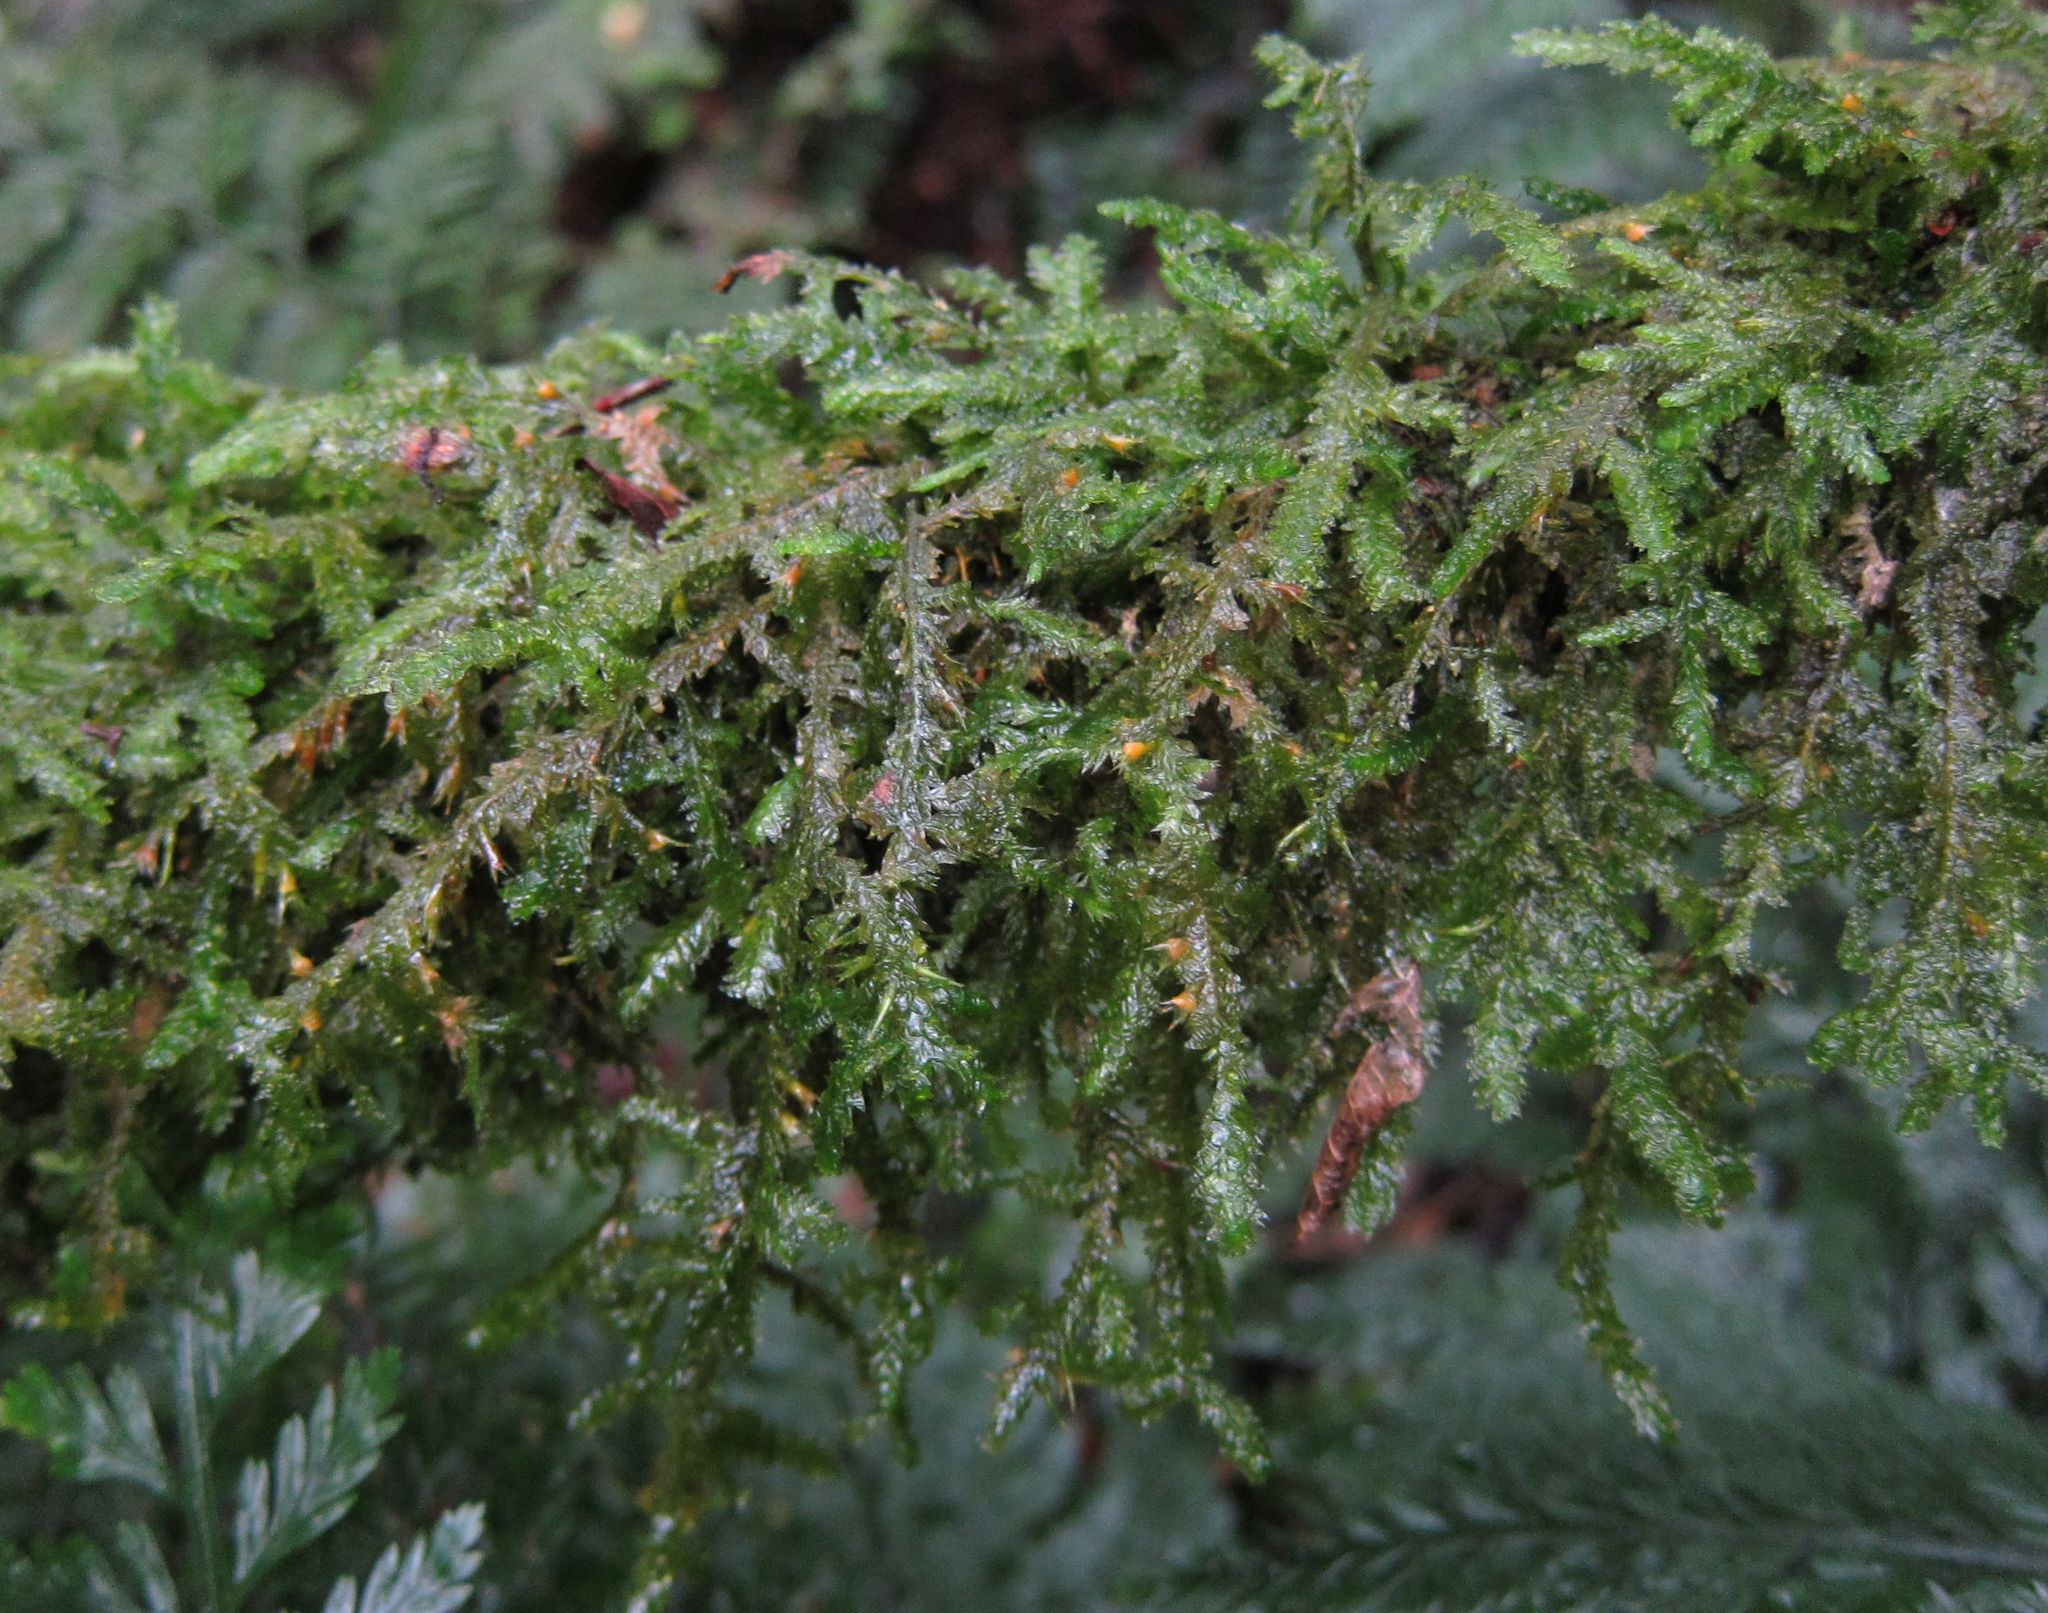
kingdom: Plantae
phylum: Bryophyta
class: Bryopsida
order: Hypnales
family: Neckeraceae
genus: Alleniella
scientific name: Alleniella hymenodonta
